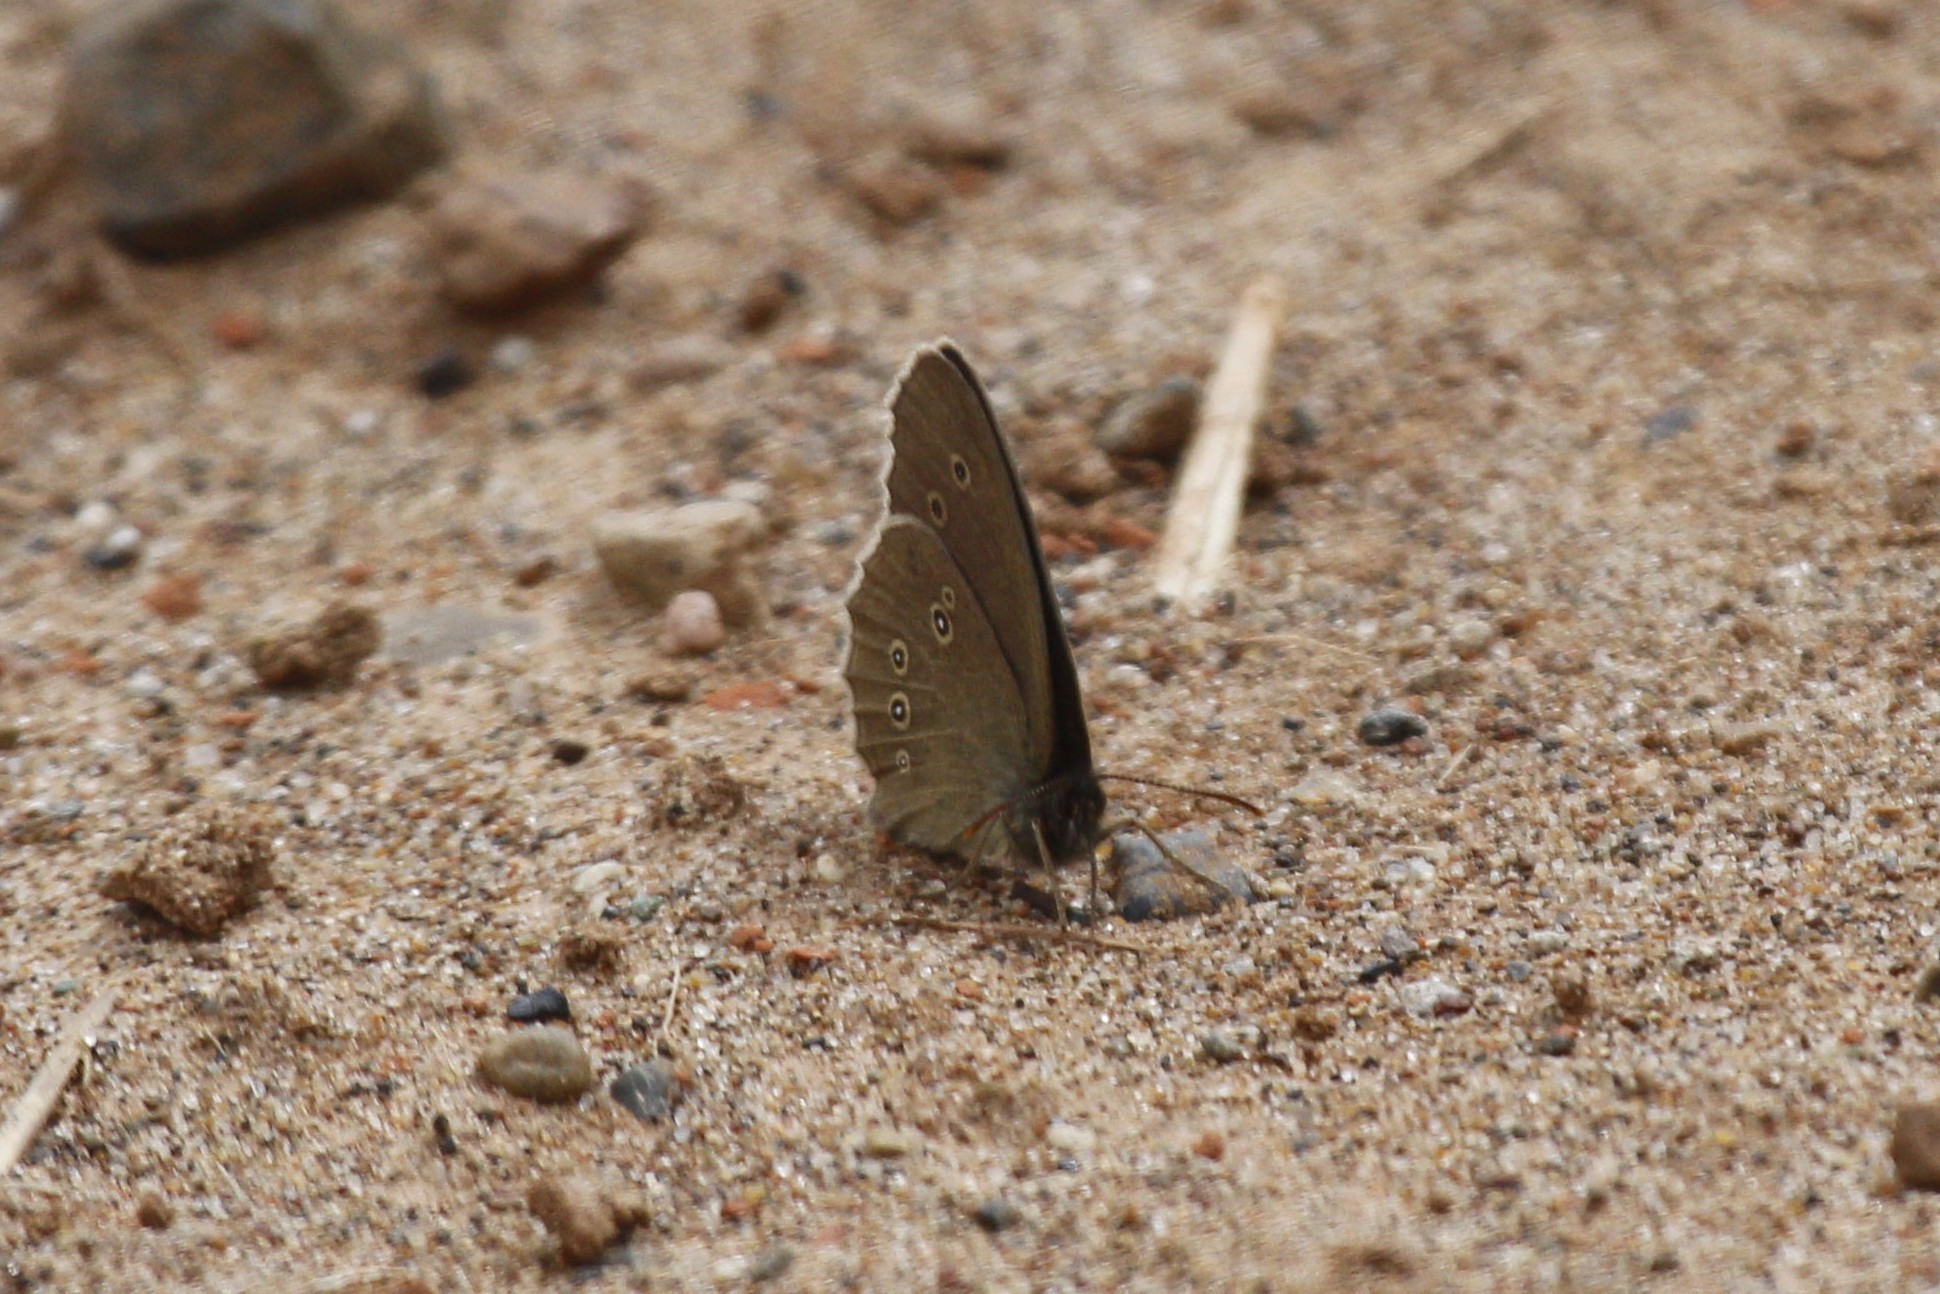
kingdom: Animalia
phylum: Arthropoda
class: Insecta
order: Lepidoptera
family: Nymphalidae
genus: Aphantopus
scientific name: Aphantopus hyperantus
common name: Ringlet
